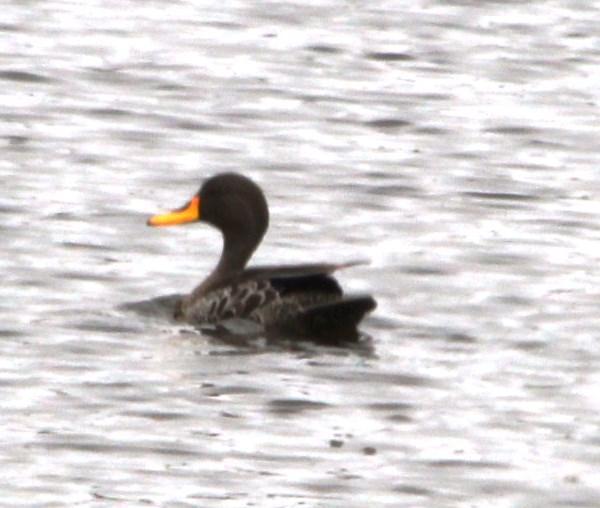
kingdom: Animalia
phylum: Chordata
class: Aves
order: Anseriformes
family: Anatidae
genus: Anas
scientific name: Anas undulata
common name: Yellow-billed duck
